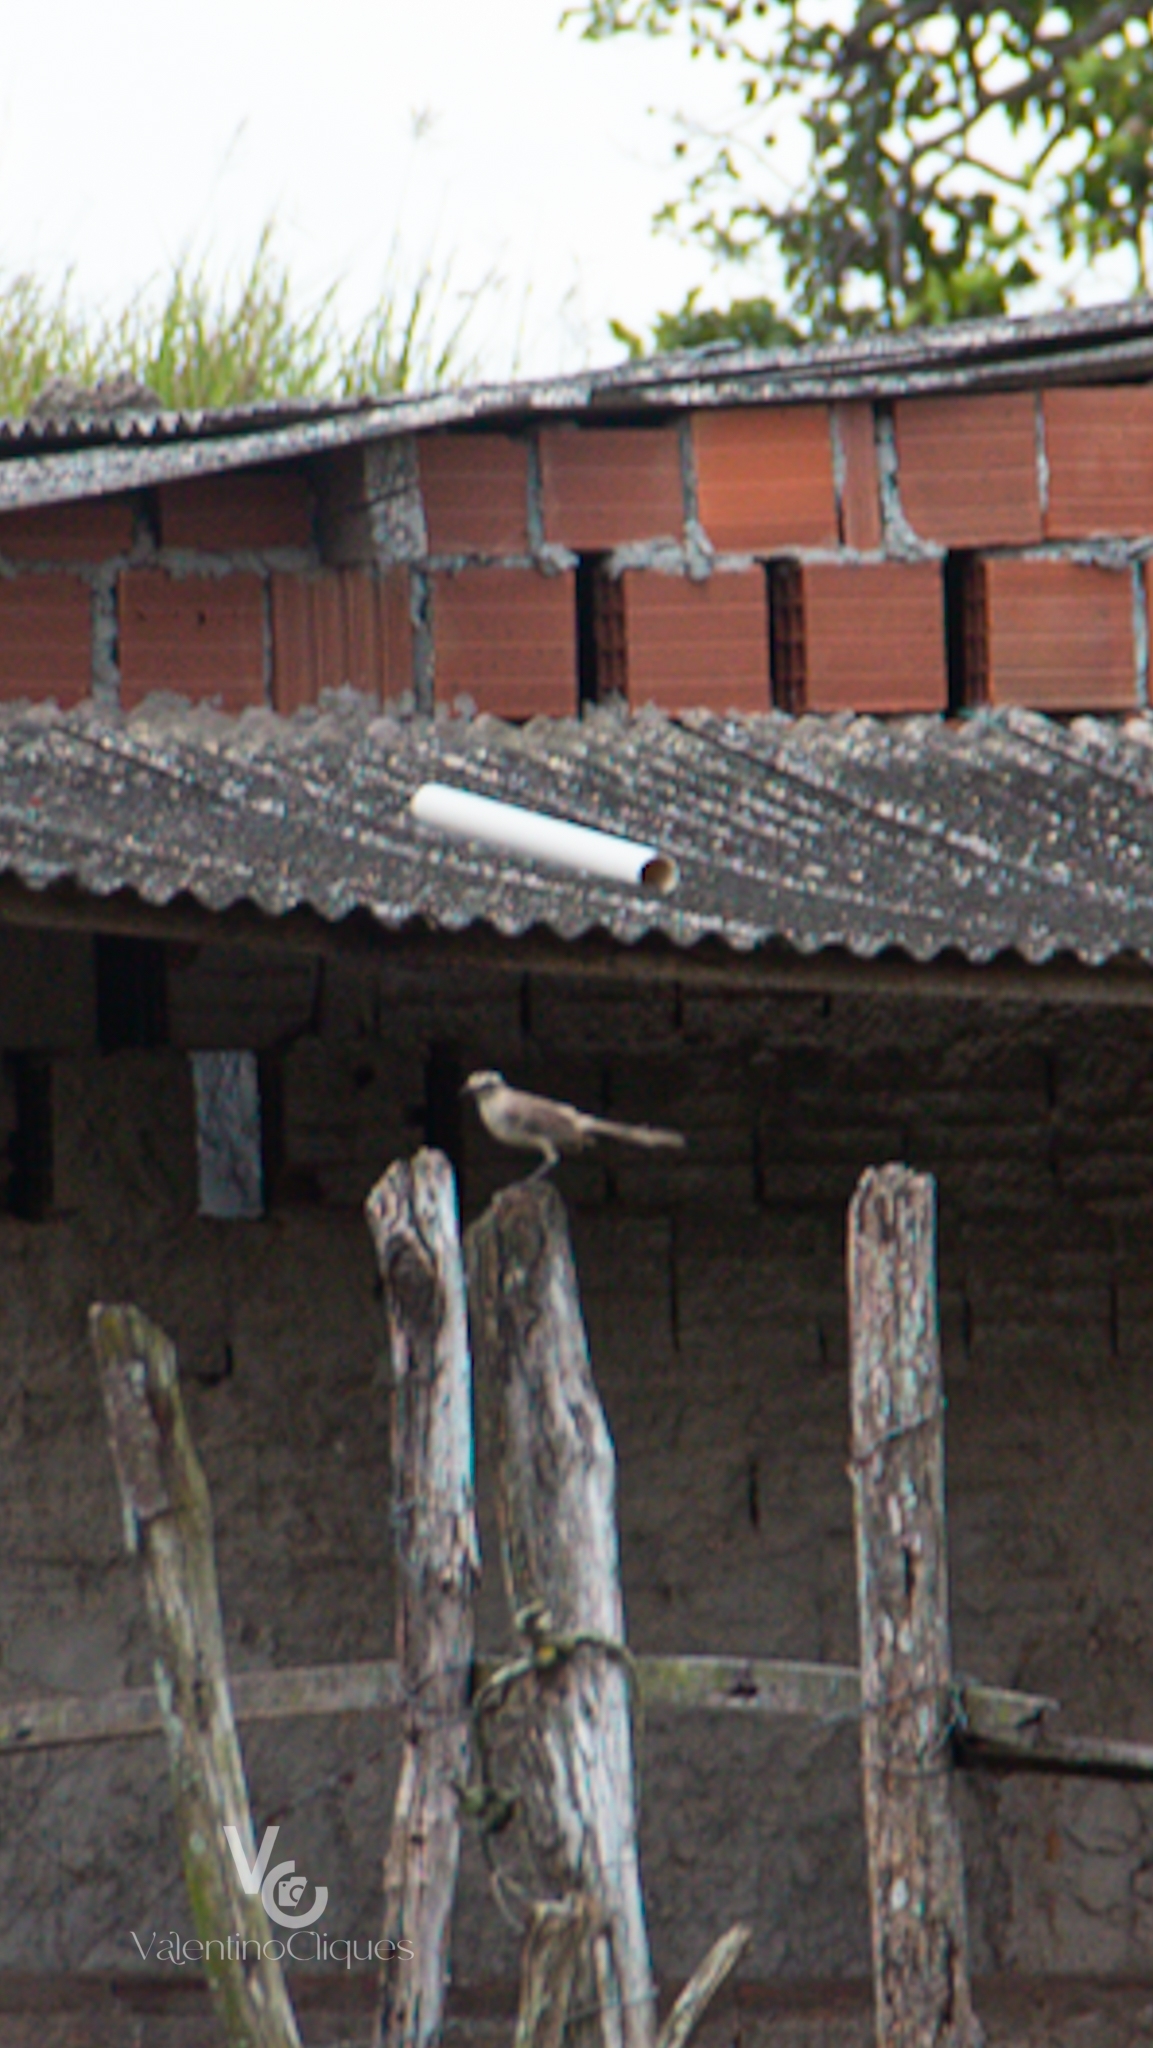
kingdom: Animalia
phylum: Chordata
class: Aves
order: Passeriformes
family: Mimidae
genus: Mimus
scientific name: Mimus saturninus
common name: Chalk-browed mockingbird
